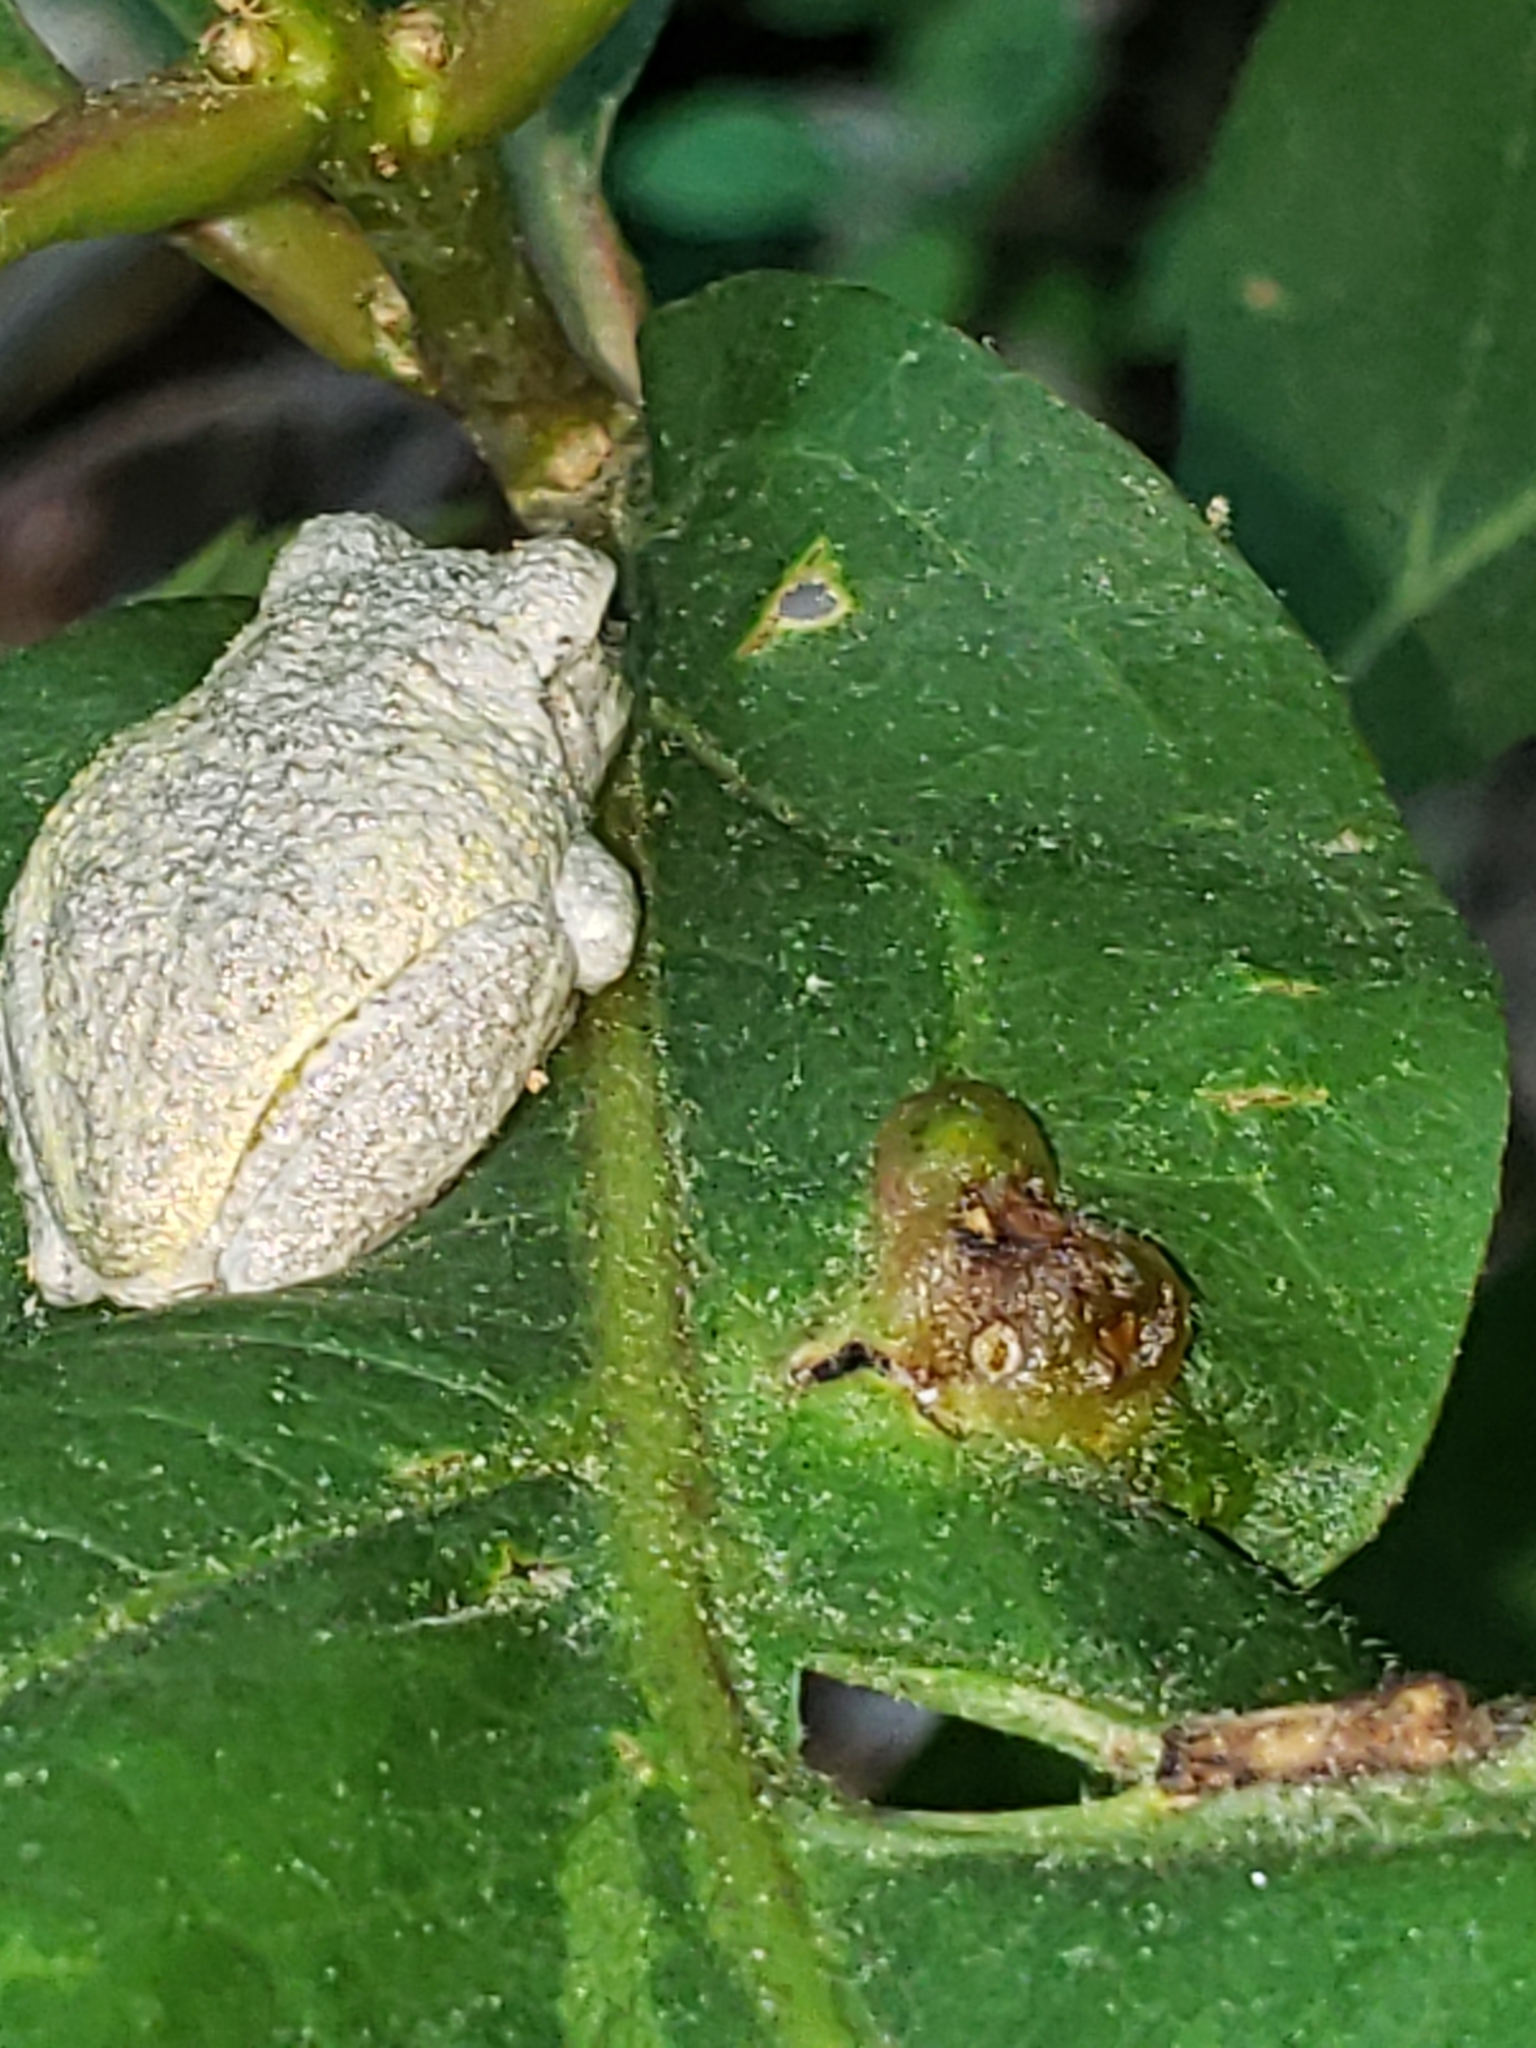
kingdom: Animalia
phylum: Chordata
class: Amphibia
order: Anura
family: Hylidae
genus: Hyla
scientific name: Hyla
